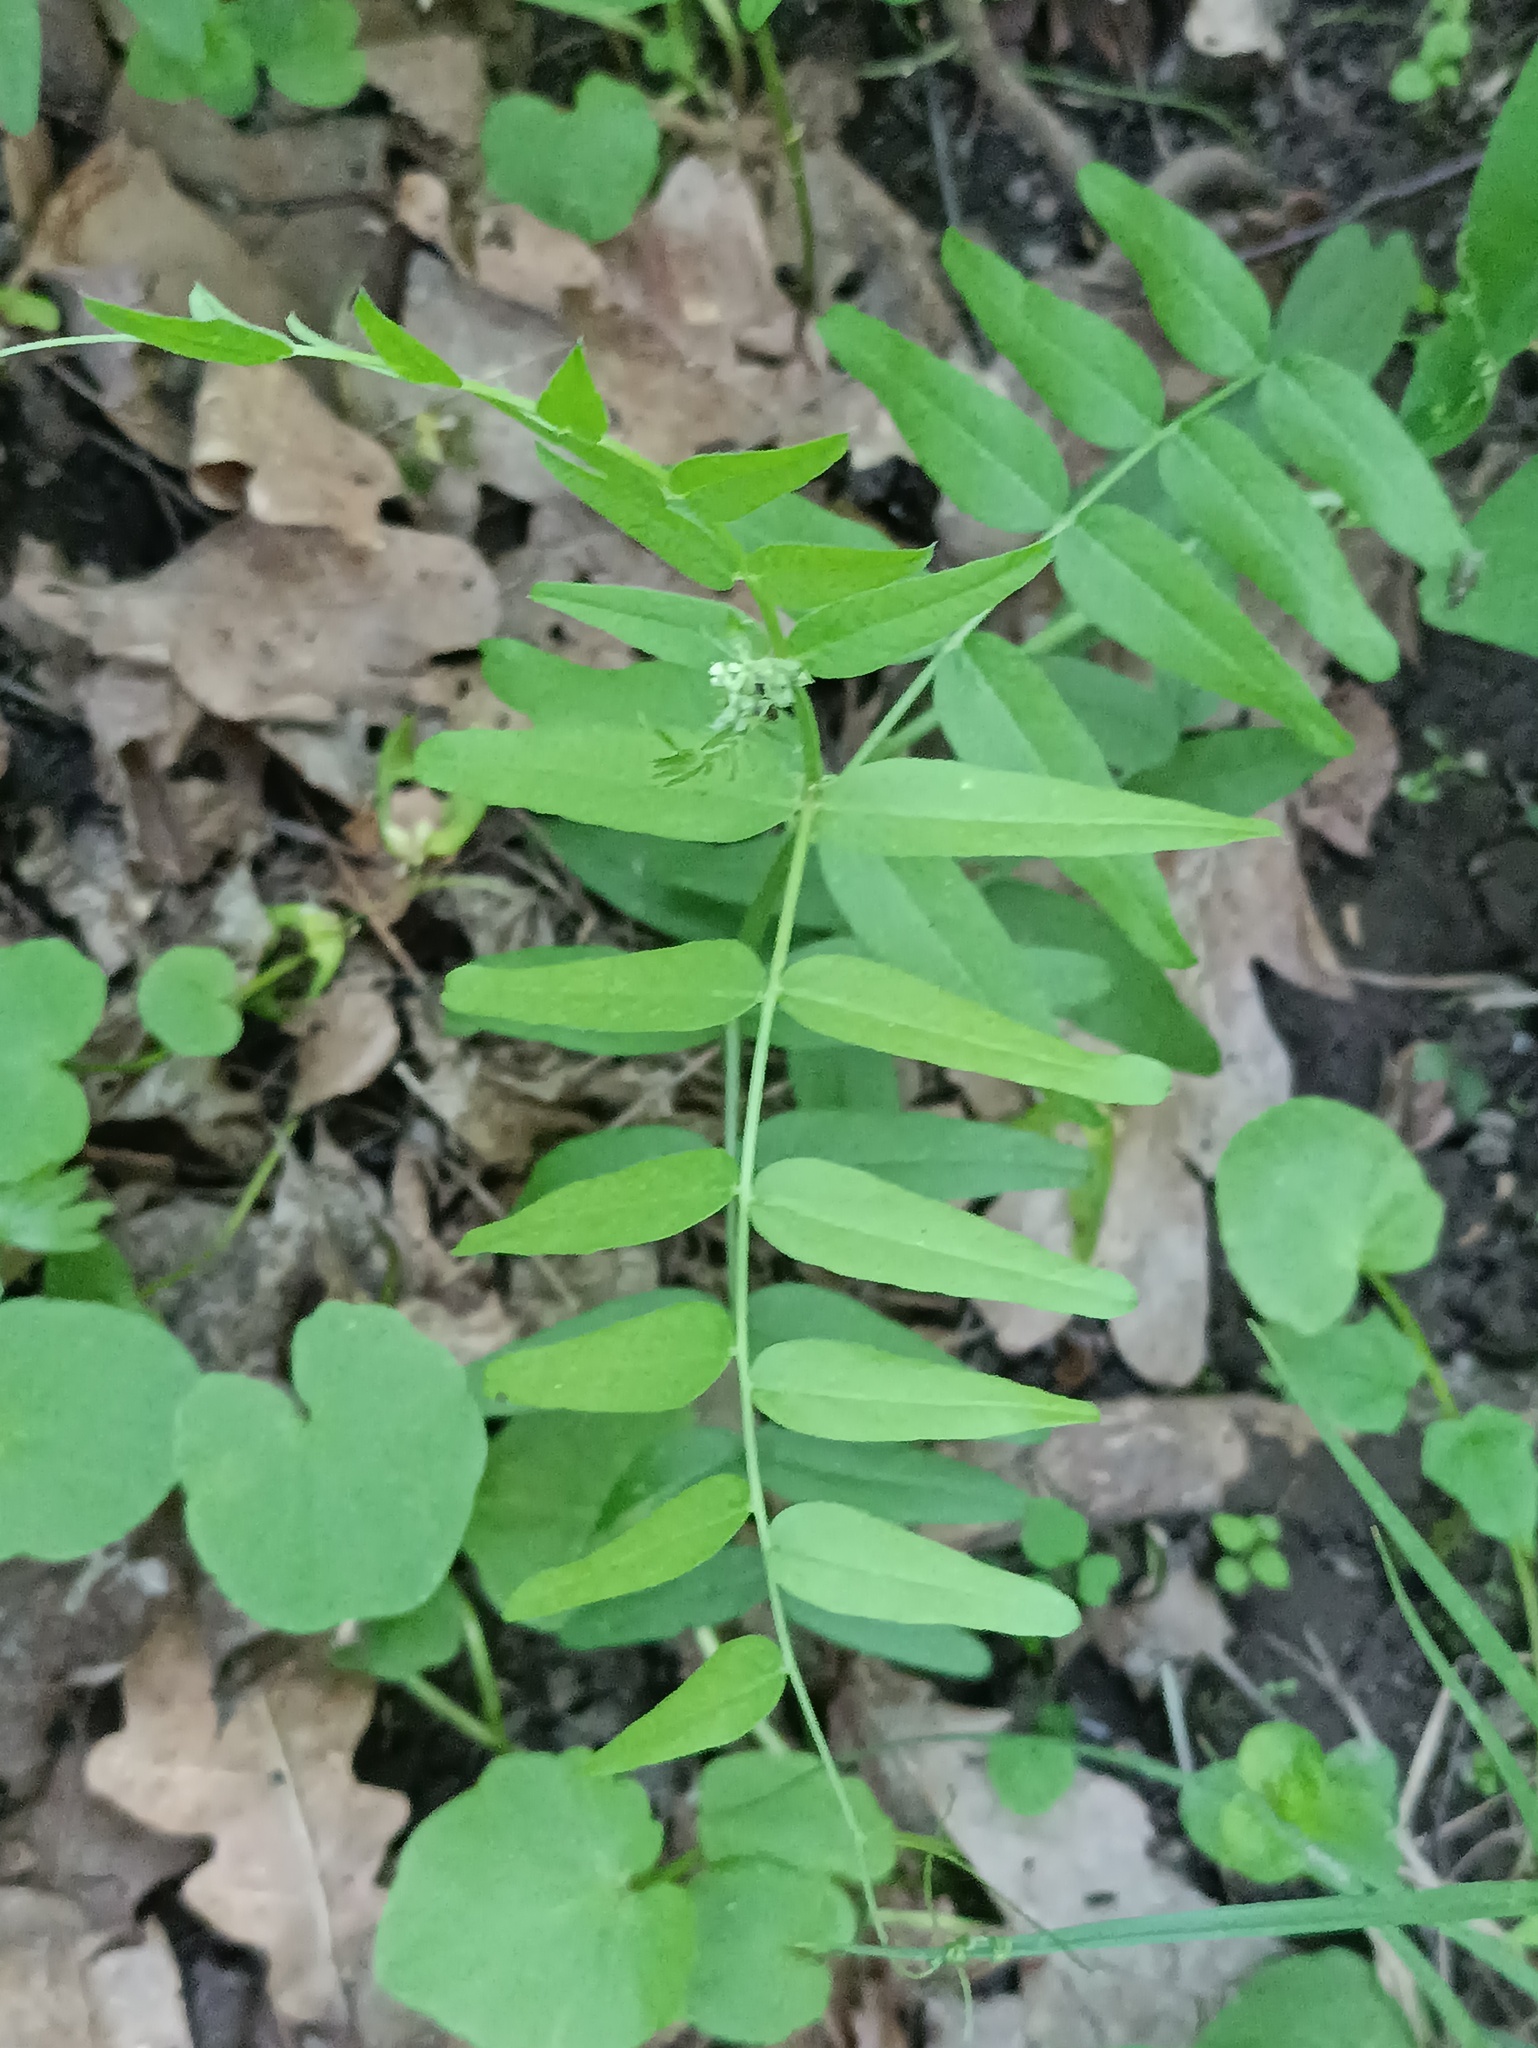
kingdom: Plantae
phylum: Tracheophyta
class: Magnoliopsida
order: Fabales
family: Fabaceae
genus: Vicia
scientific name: Vicia sepium
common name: Bush vetch
